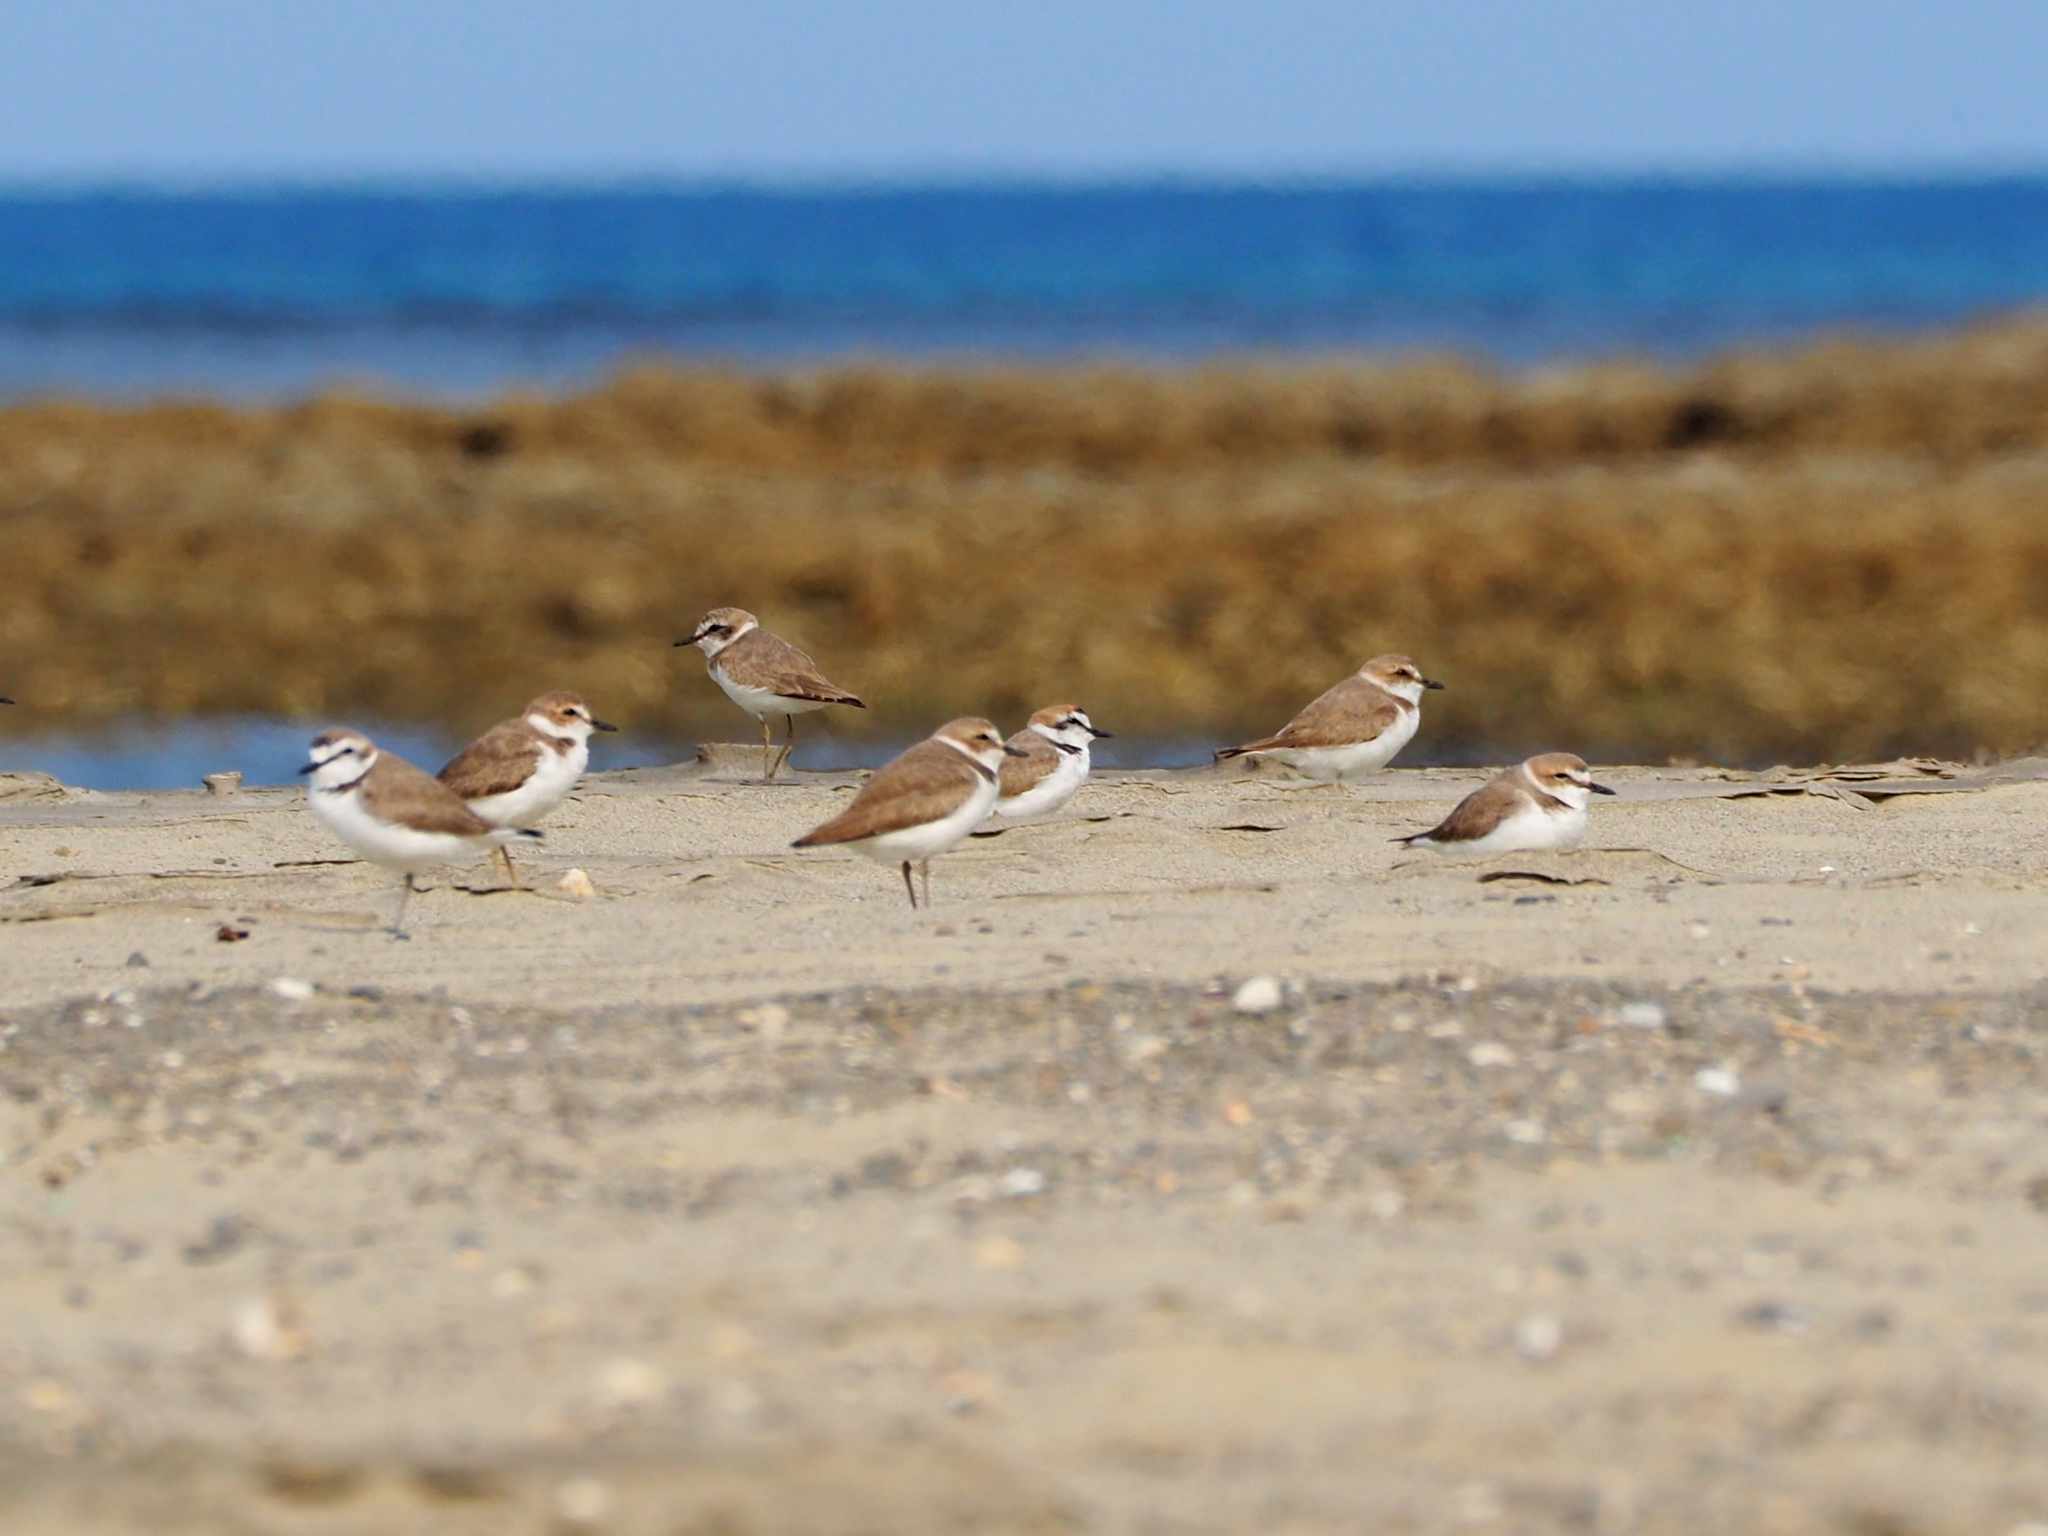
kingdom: Animalia
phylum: Chordata
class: Aves
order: Charadriiformes
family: Charadriidae
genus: Charadrius
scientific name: Charadrius alexandrinus
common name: Kentish plover
